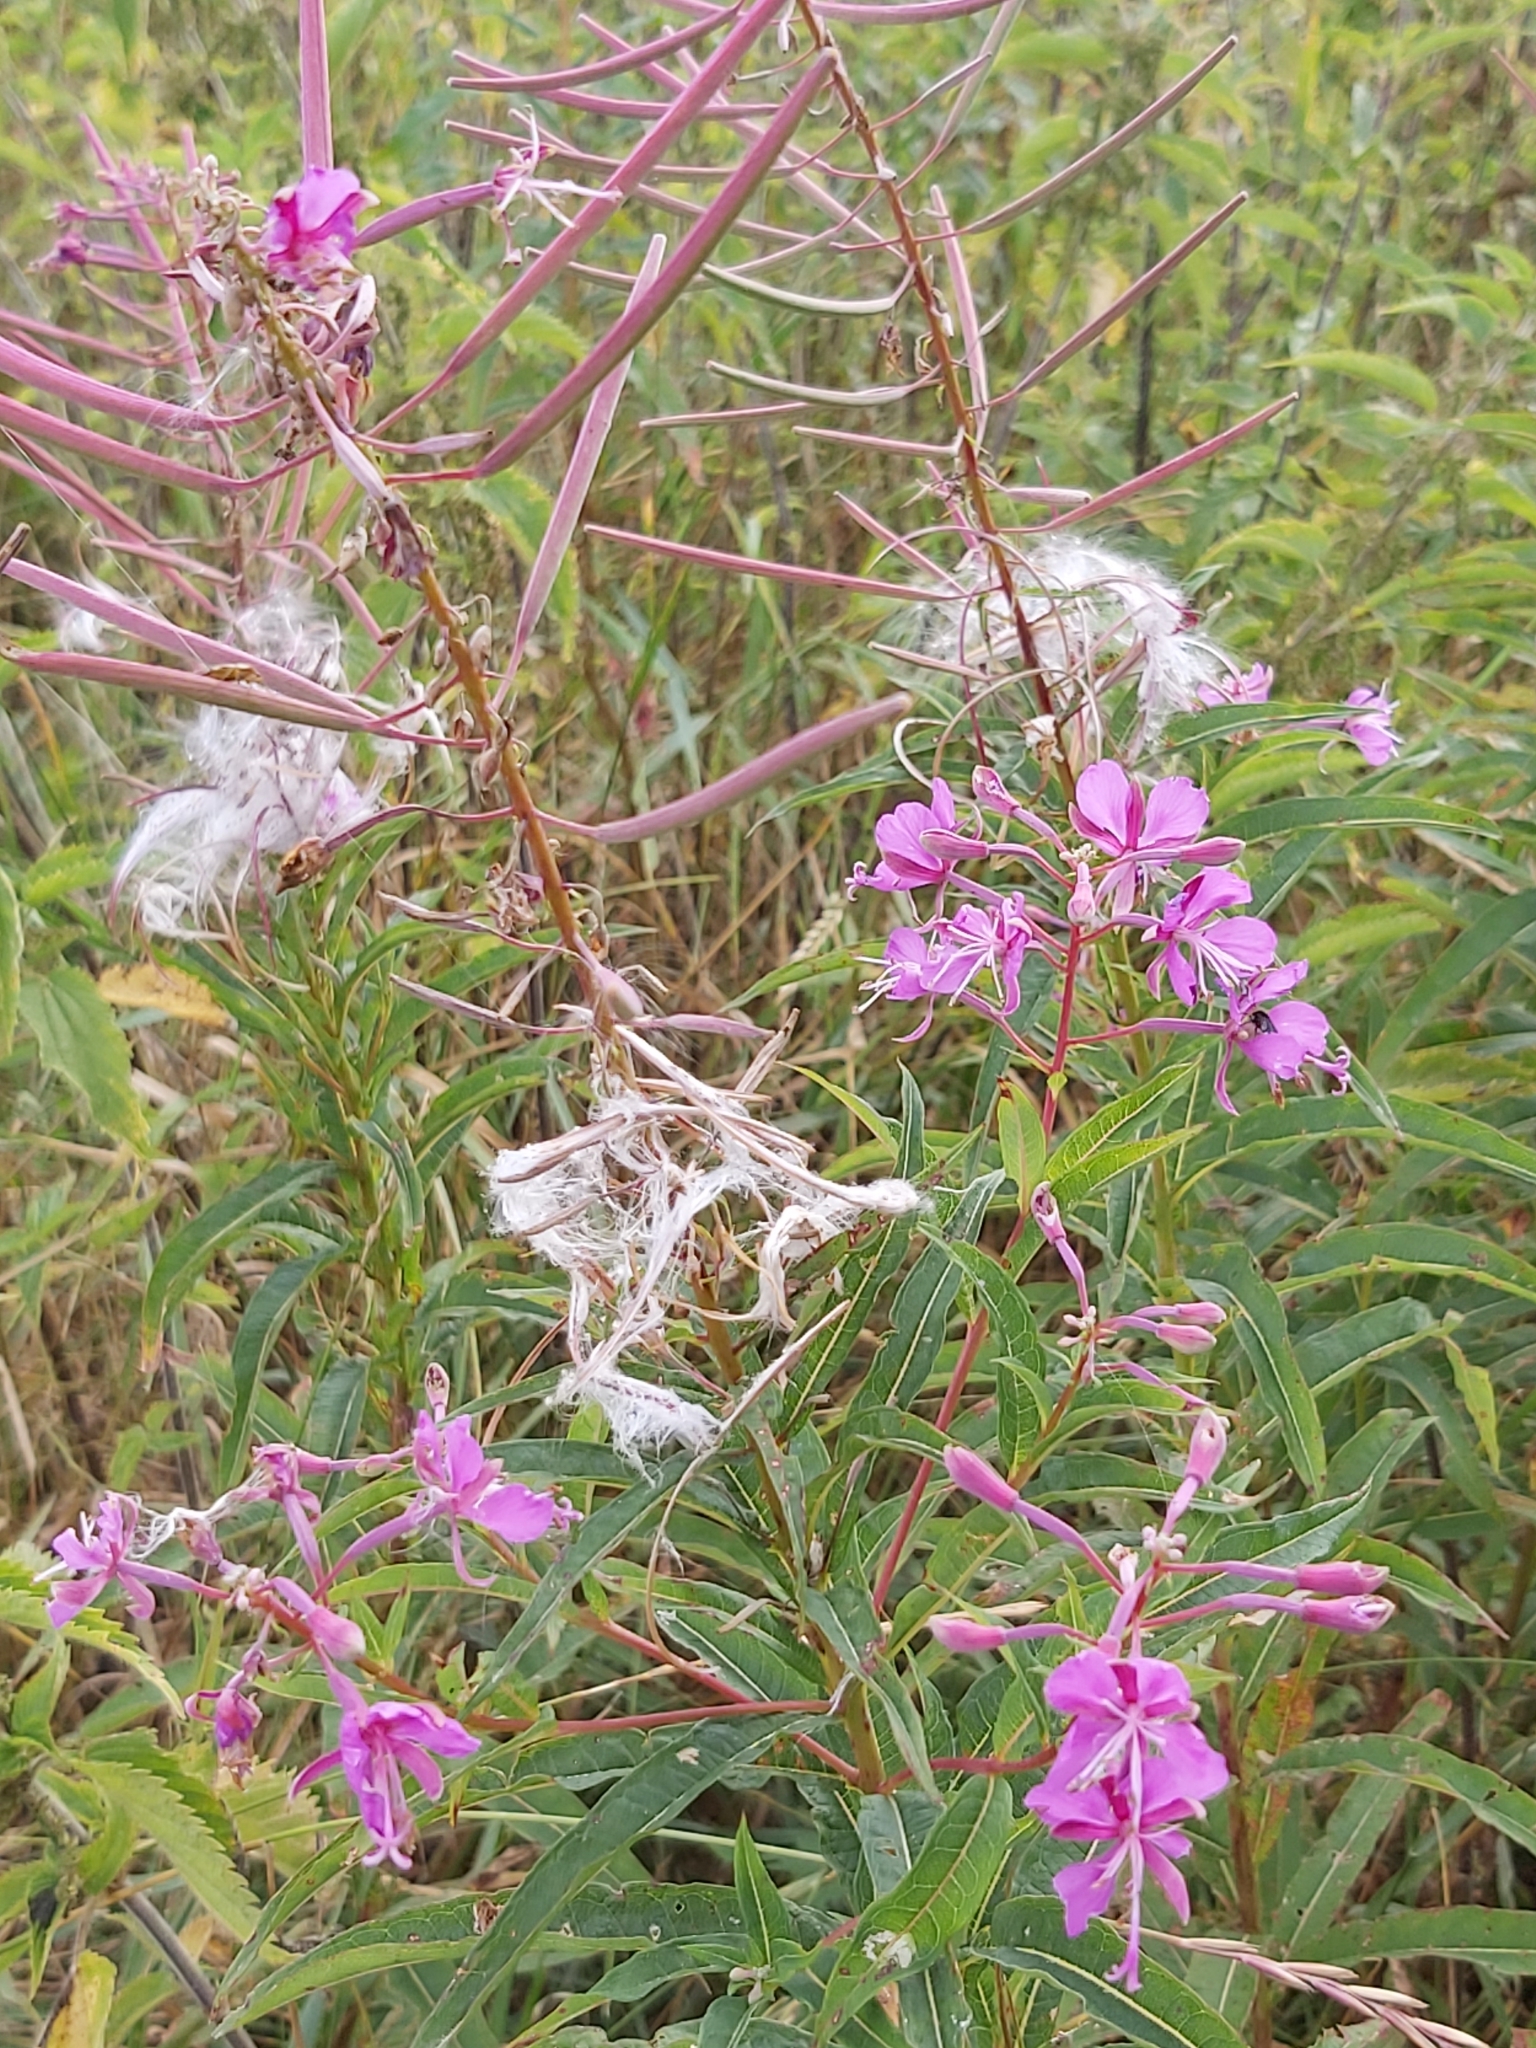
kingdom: Plantae
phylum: Tracheophyta
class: Magnoliopsida
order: Myrtales
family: Onagraceae
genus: Chamaenerion
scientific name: Chamaenerion angustifolium
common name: Fireweed
